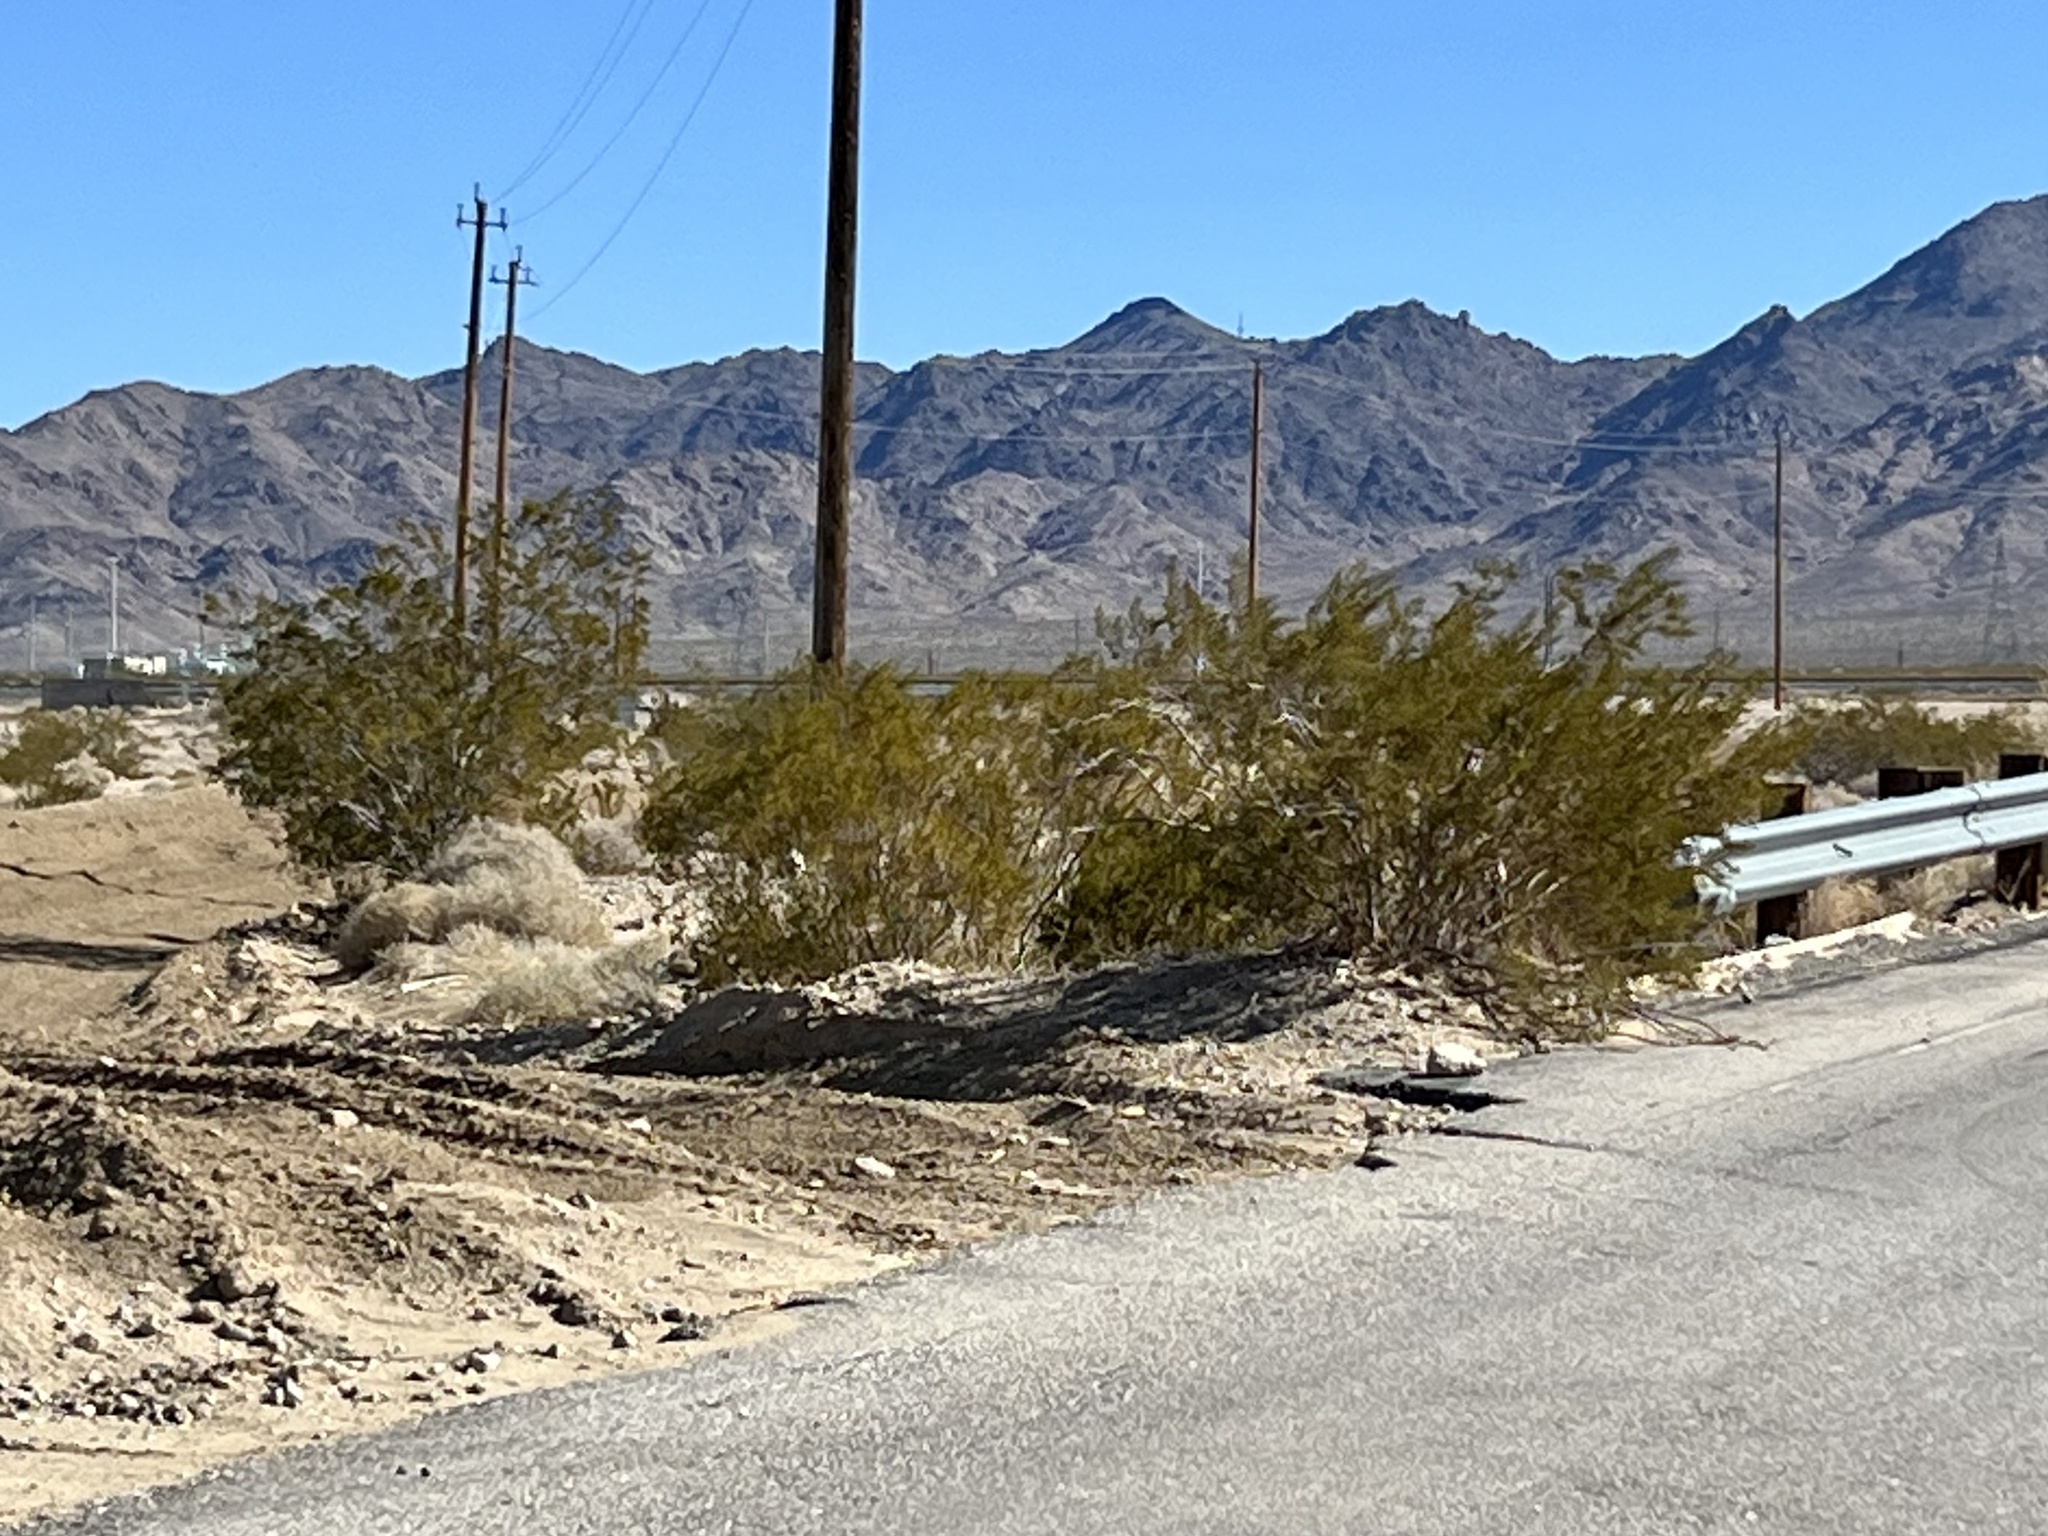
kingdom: Plantae
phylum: Tracheophyta
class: Magnoliopsida
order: Zygophyllales
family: Zygophyllaceae
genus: Larrea
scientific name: Larrea tridentata
